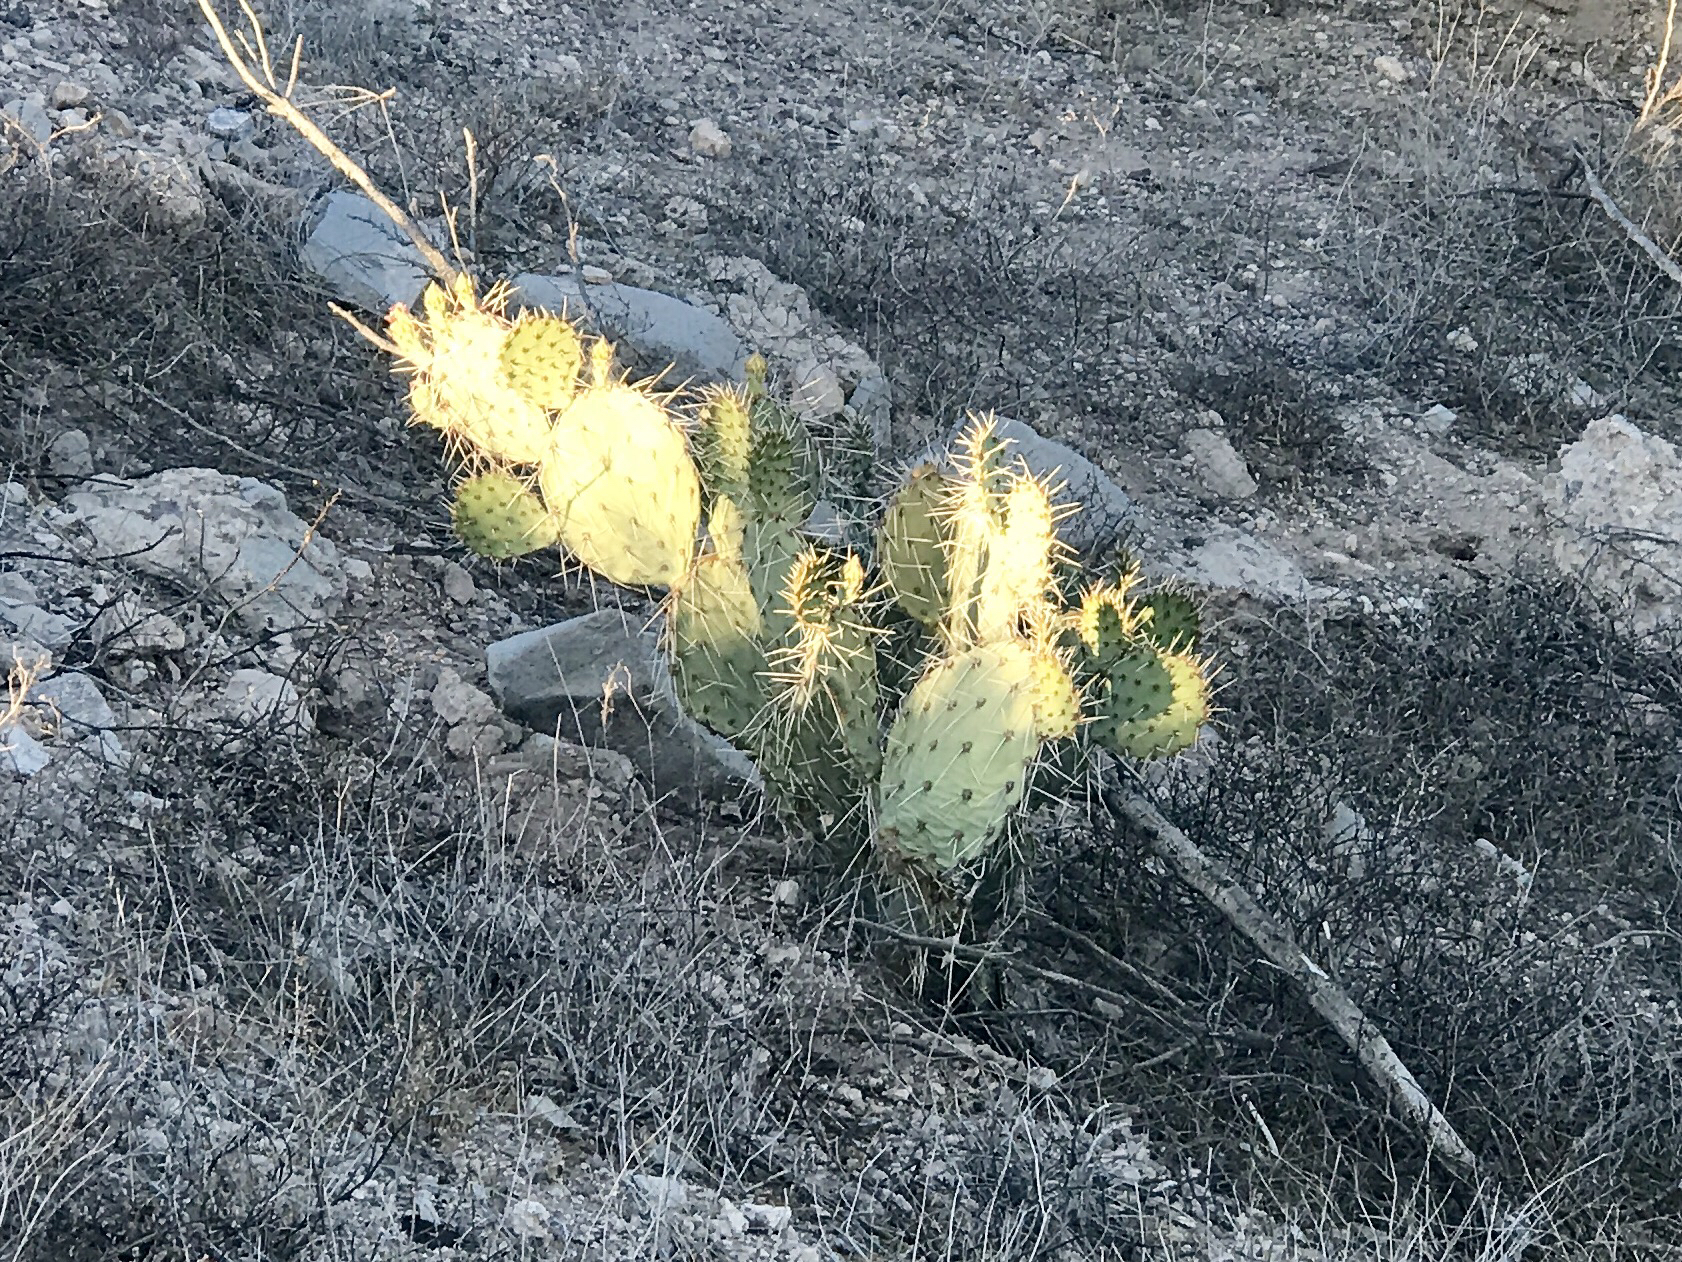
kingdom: Plantae
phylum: Tracheophyta
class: Magnoliopsida
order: Caryophyllales
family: Cactaceae
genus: Opuntia
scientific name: Opuntia engelmannii
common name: Cactus-apple
